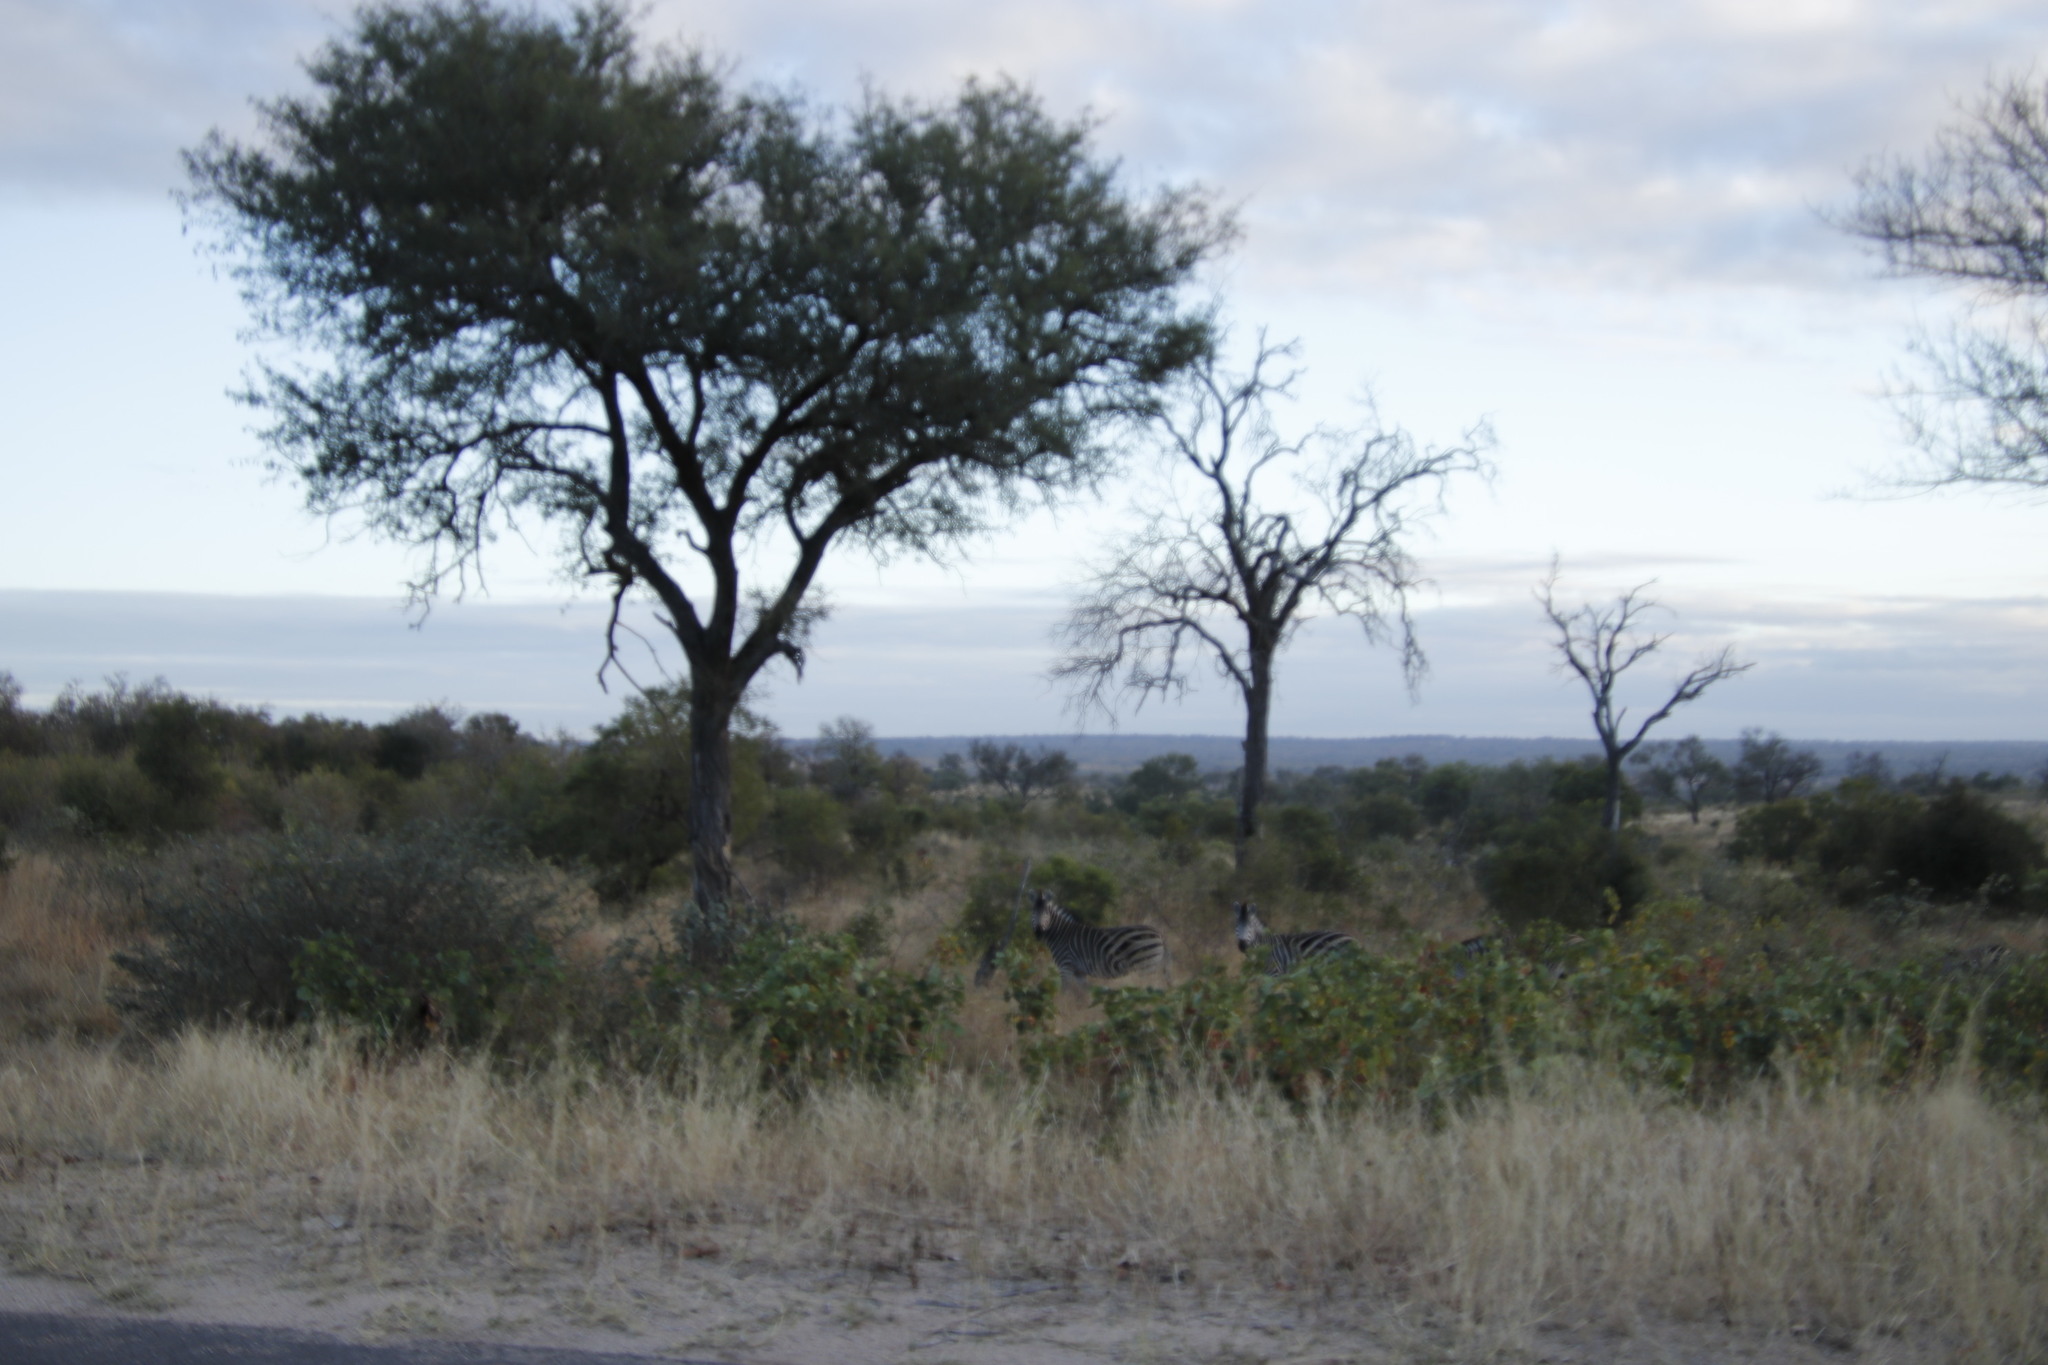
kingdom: Animalia
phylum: Chordata
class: Mammalia
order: Perissodactyla
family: Equidae
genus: Equus
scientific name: Equus quagga
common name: Plains zebra
